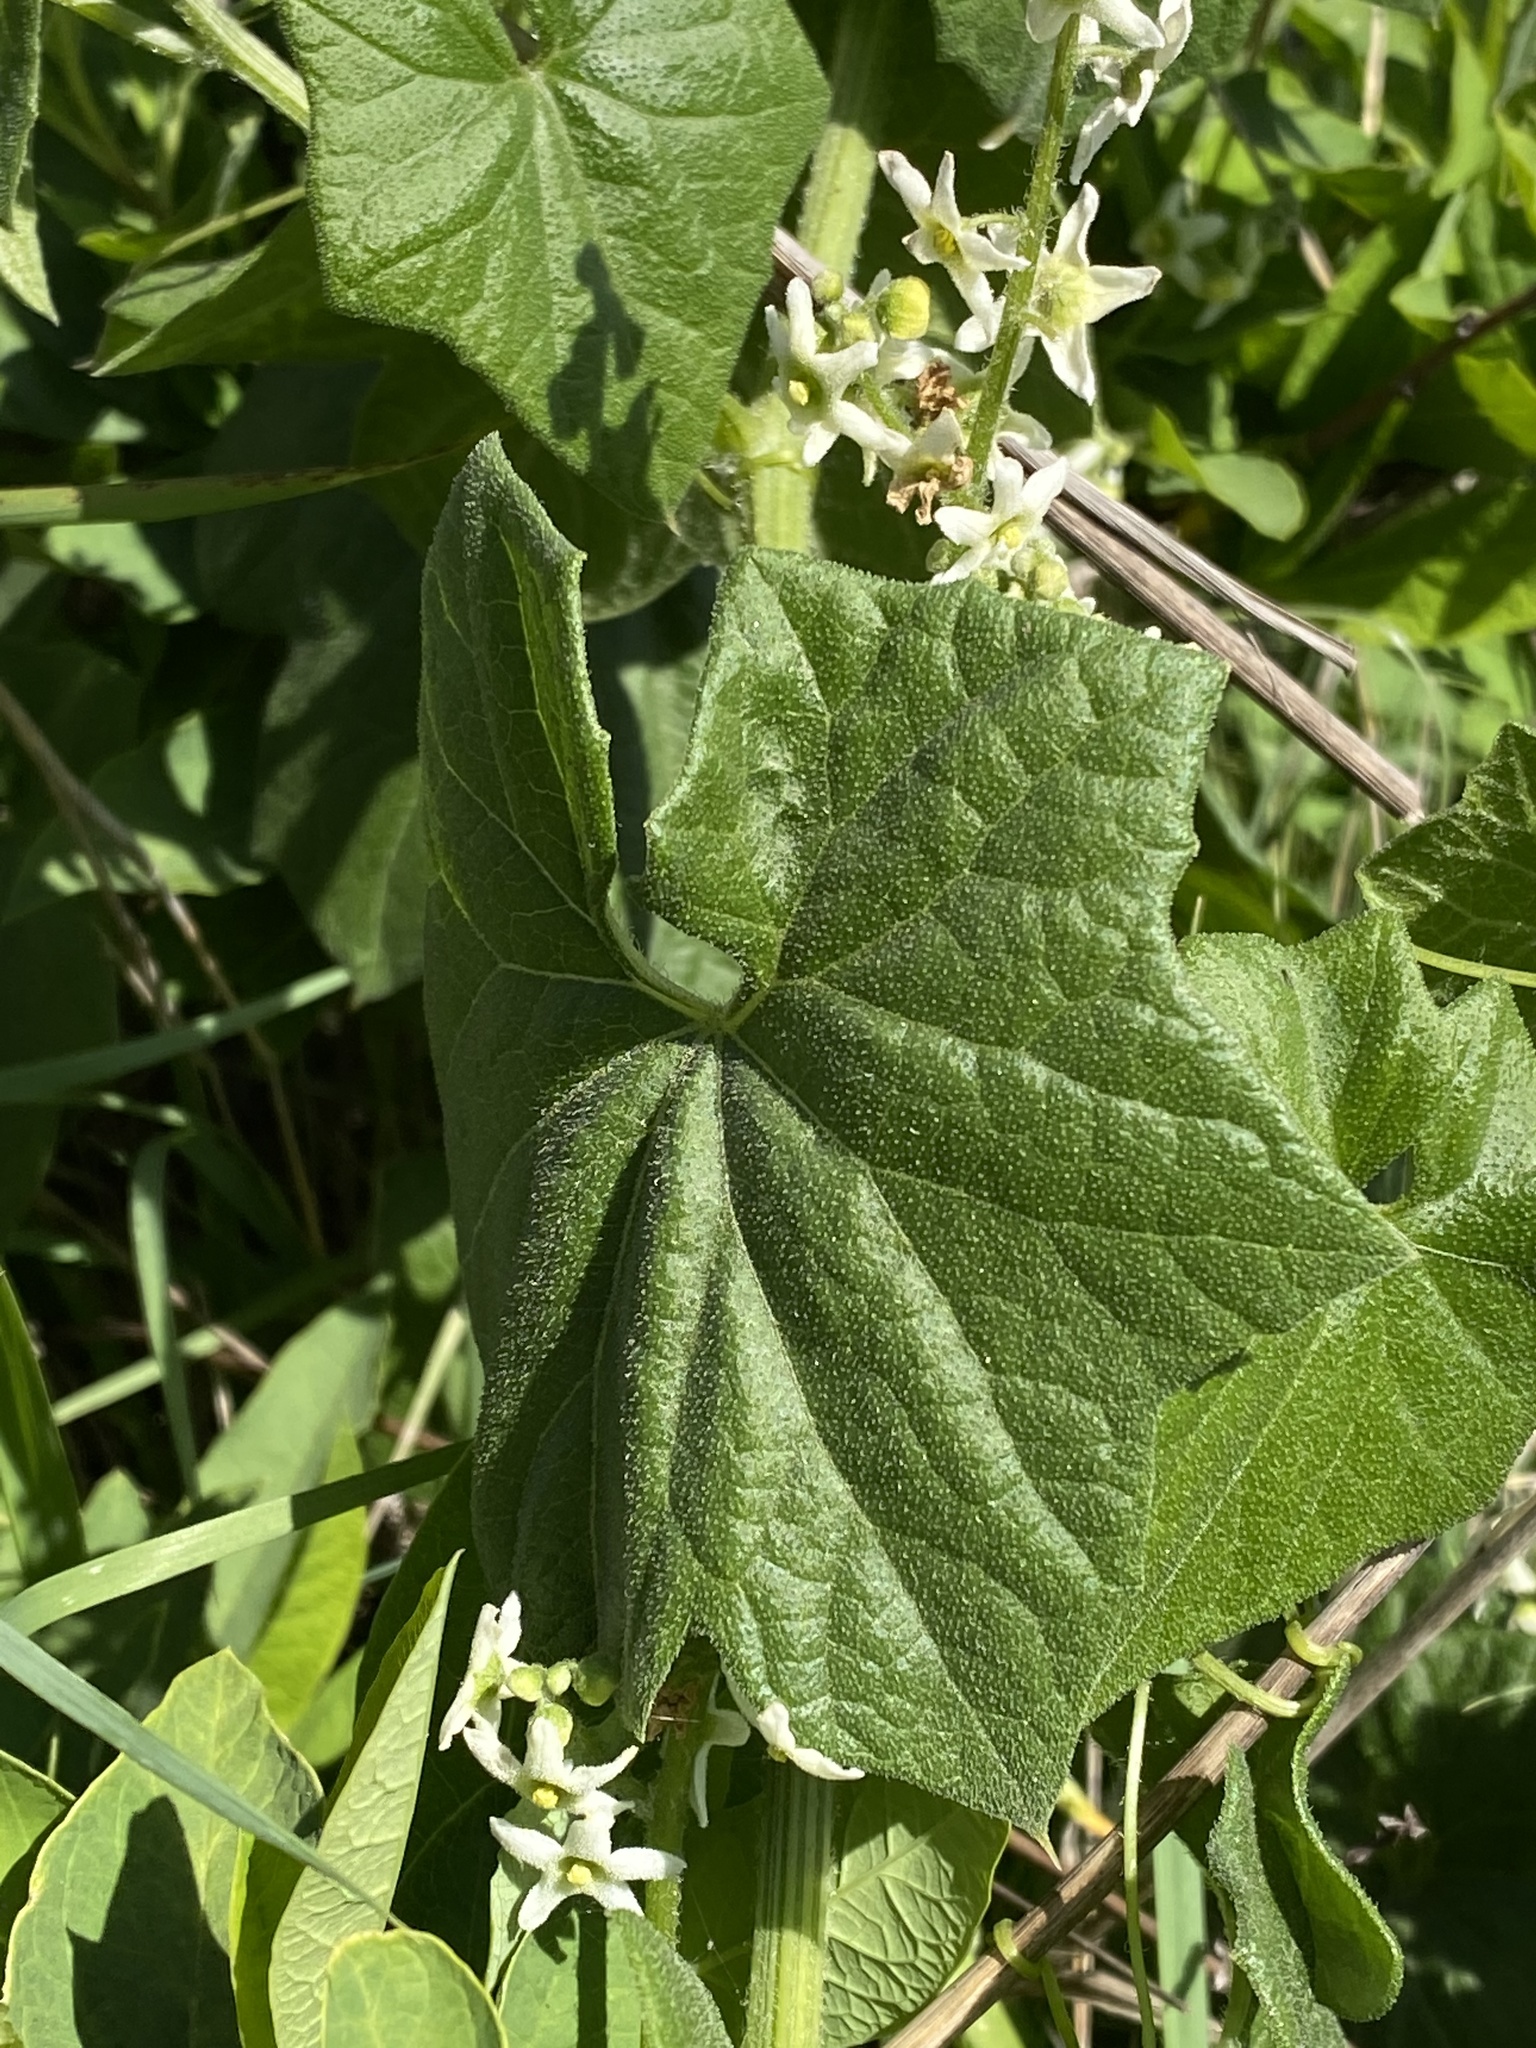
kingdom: Plantae
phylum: Tracheophyta
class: Magnoliopsida
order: Cucurbitales
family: Cucurbitaceae
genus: Marah
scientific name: Marah fabacea
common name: California manroot
